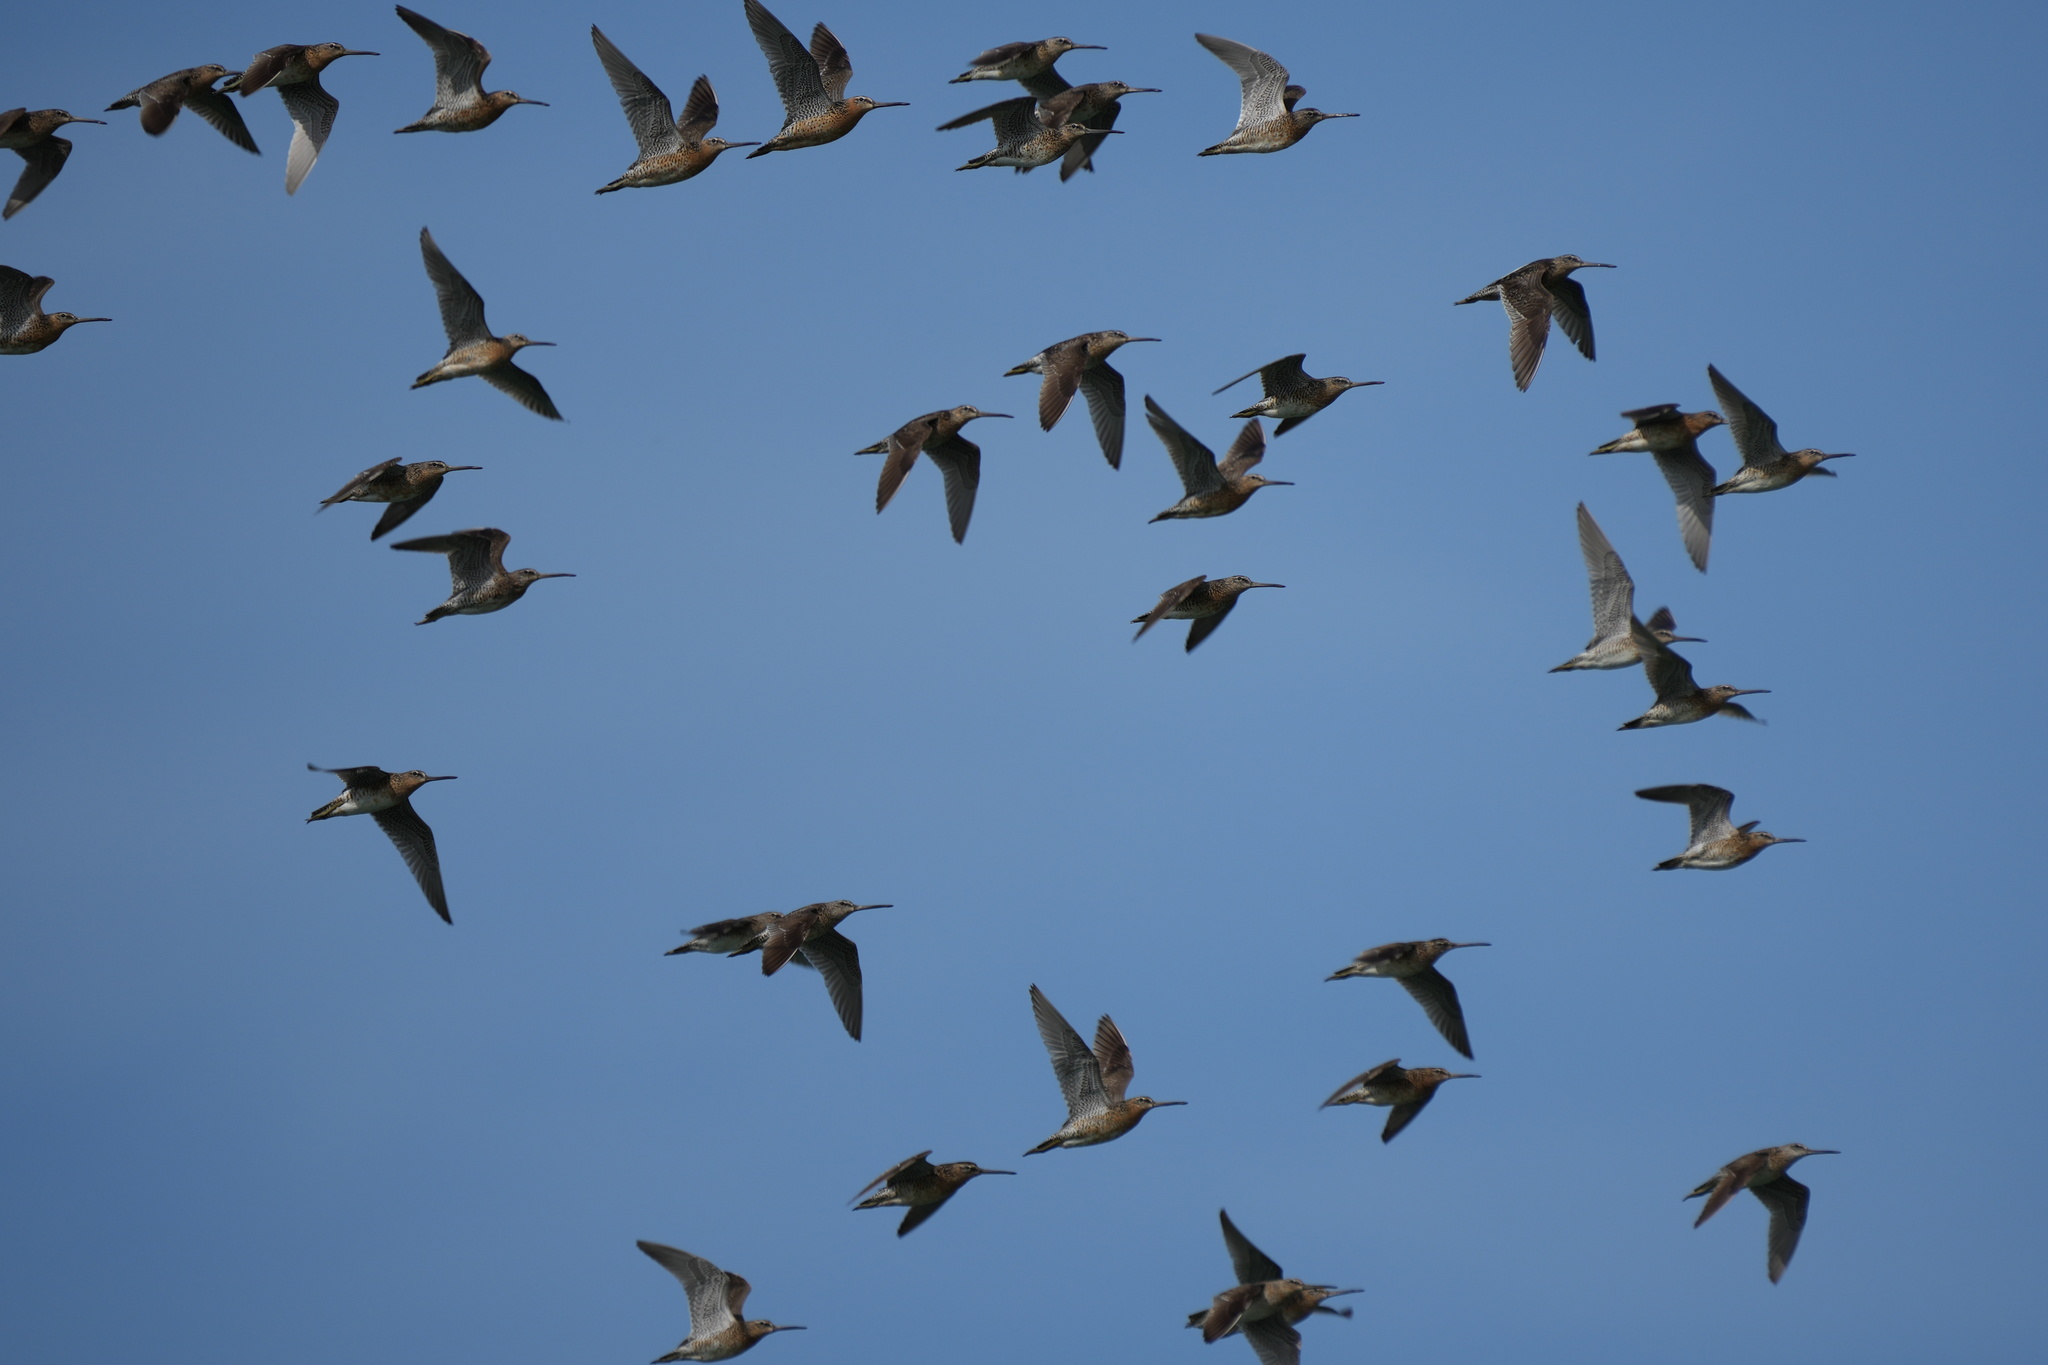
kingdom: Animalia
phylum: Chordata
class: Aves
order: Charadriiformes
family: Scolopacidae
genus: Limnodromus
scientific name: Limnodromus griseus
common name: Short-billed dowitcher
